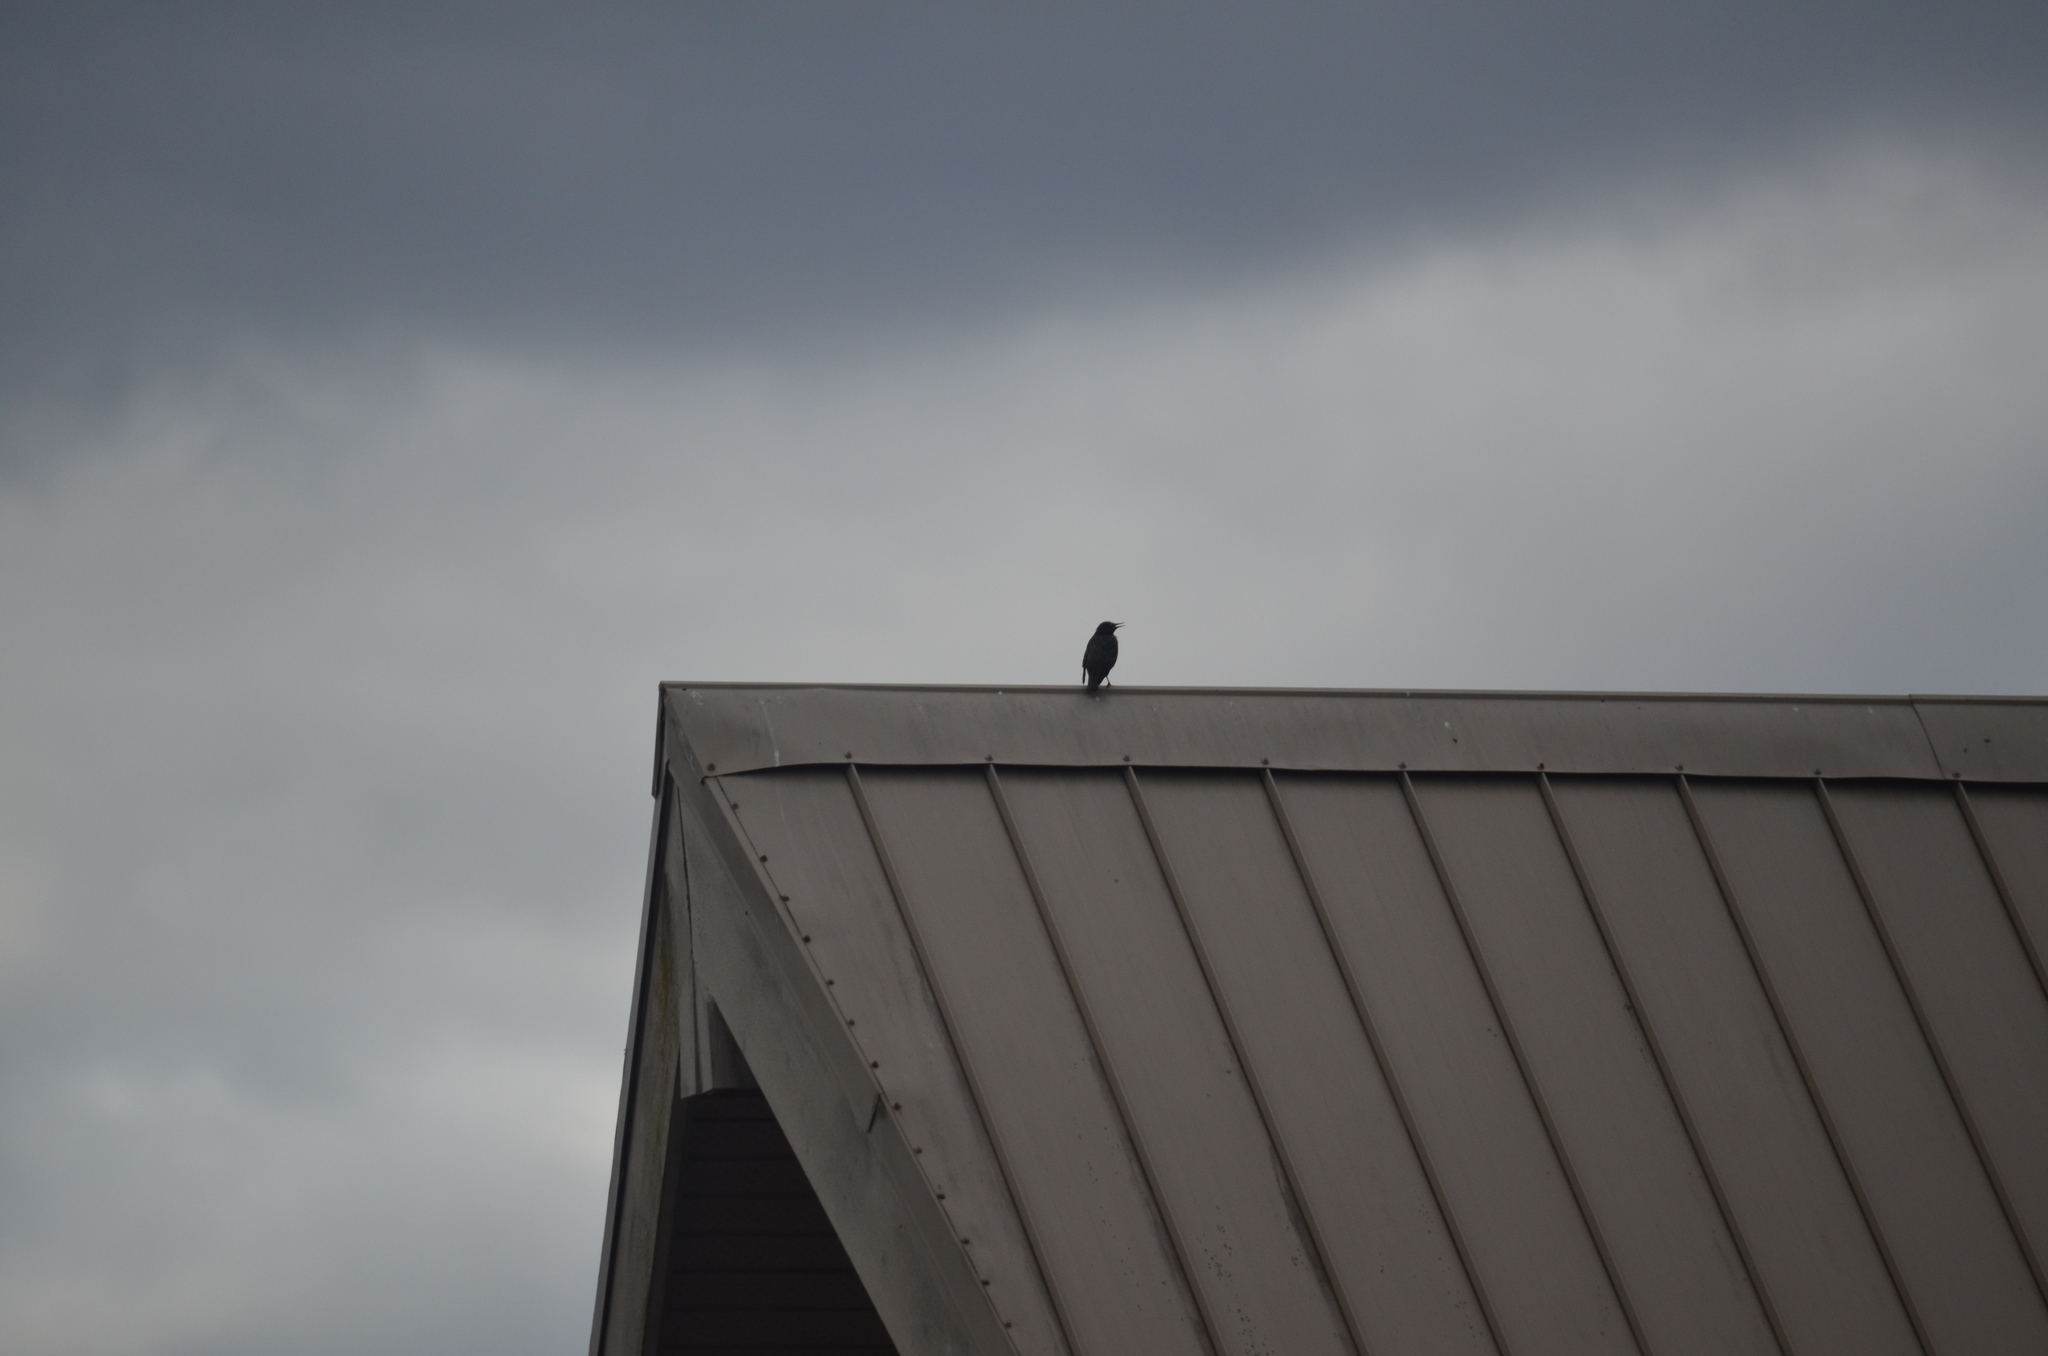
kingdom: Animalia
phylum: Chordata
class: Aves
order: Passeriformes
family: Sturnidae
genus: Sturnus
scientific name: Sturnus vulgaris
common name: Common starling
